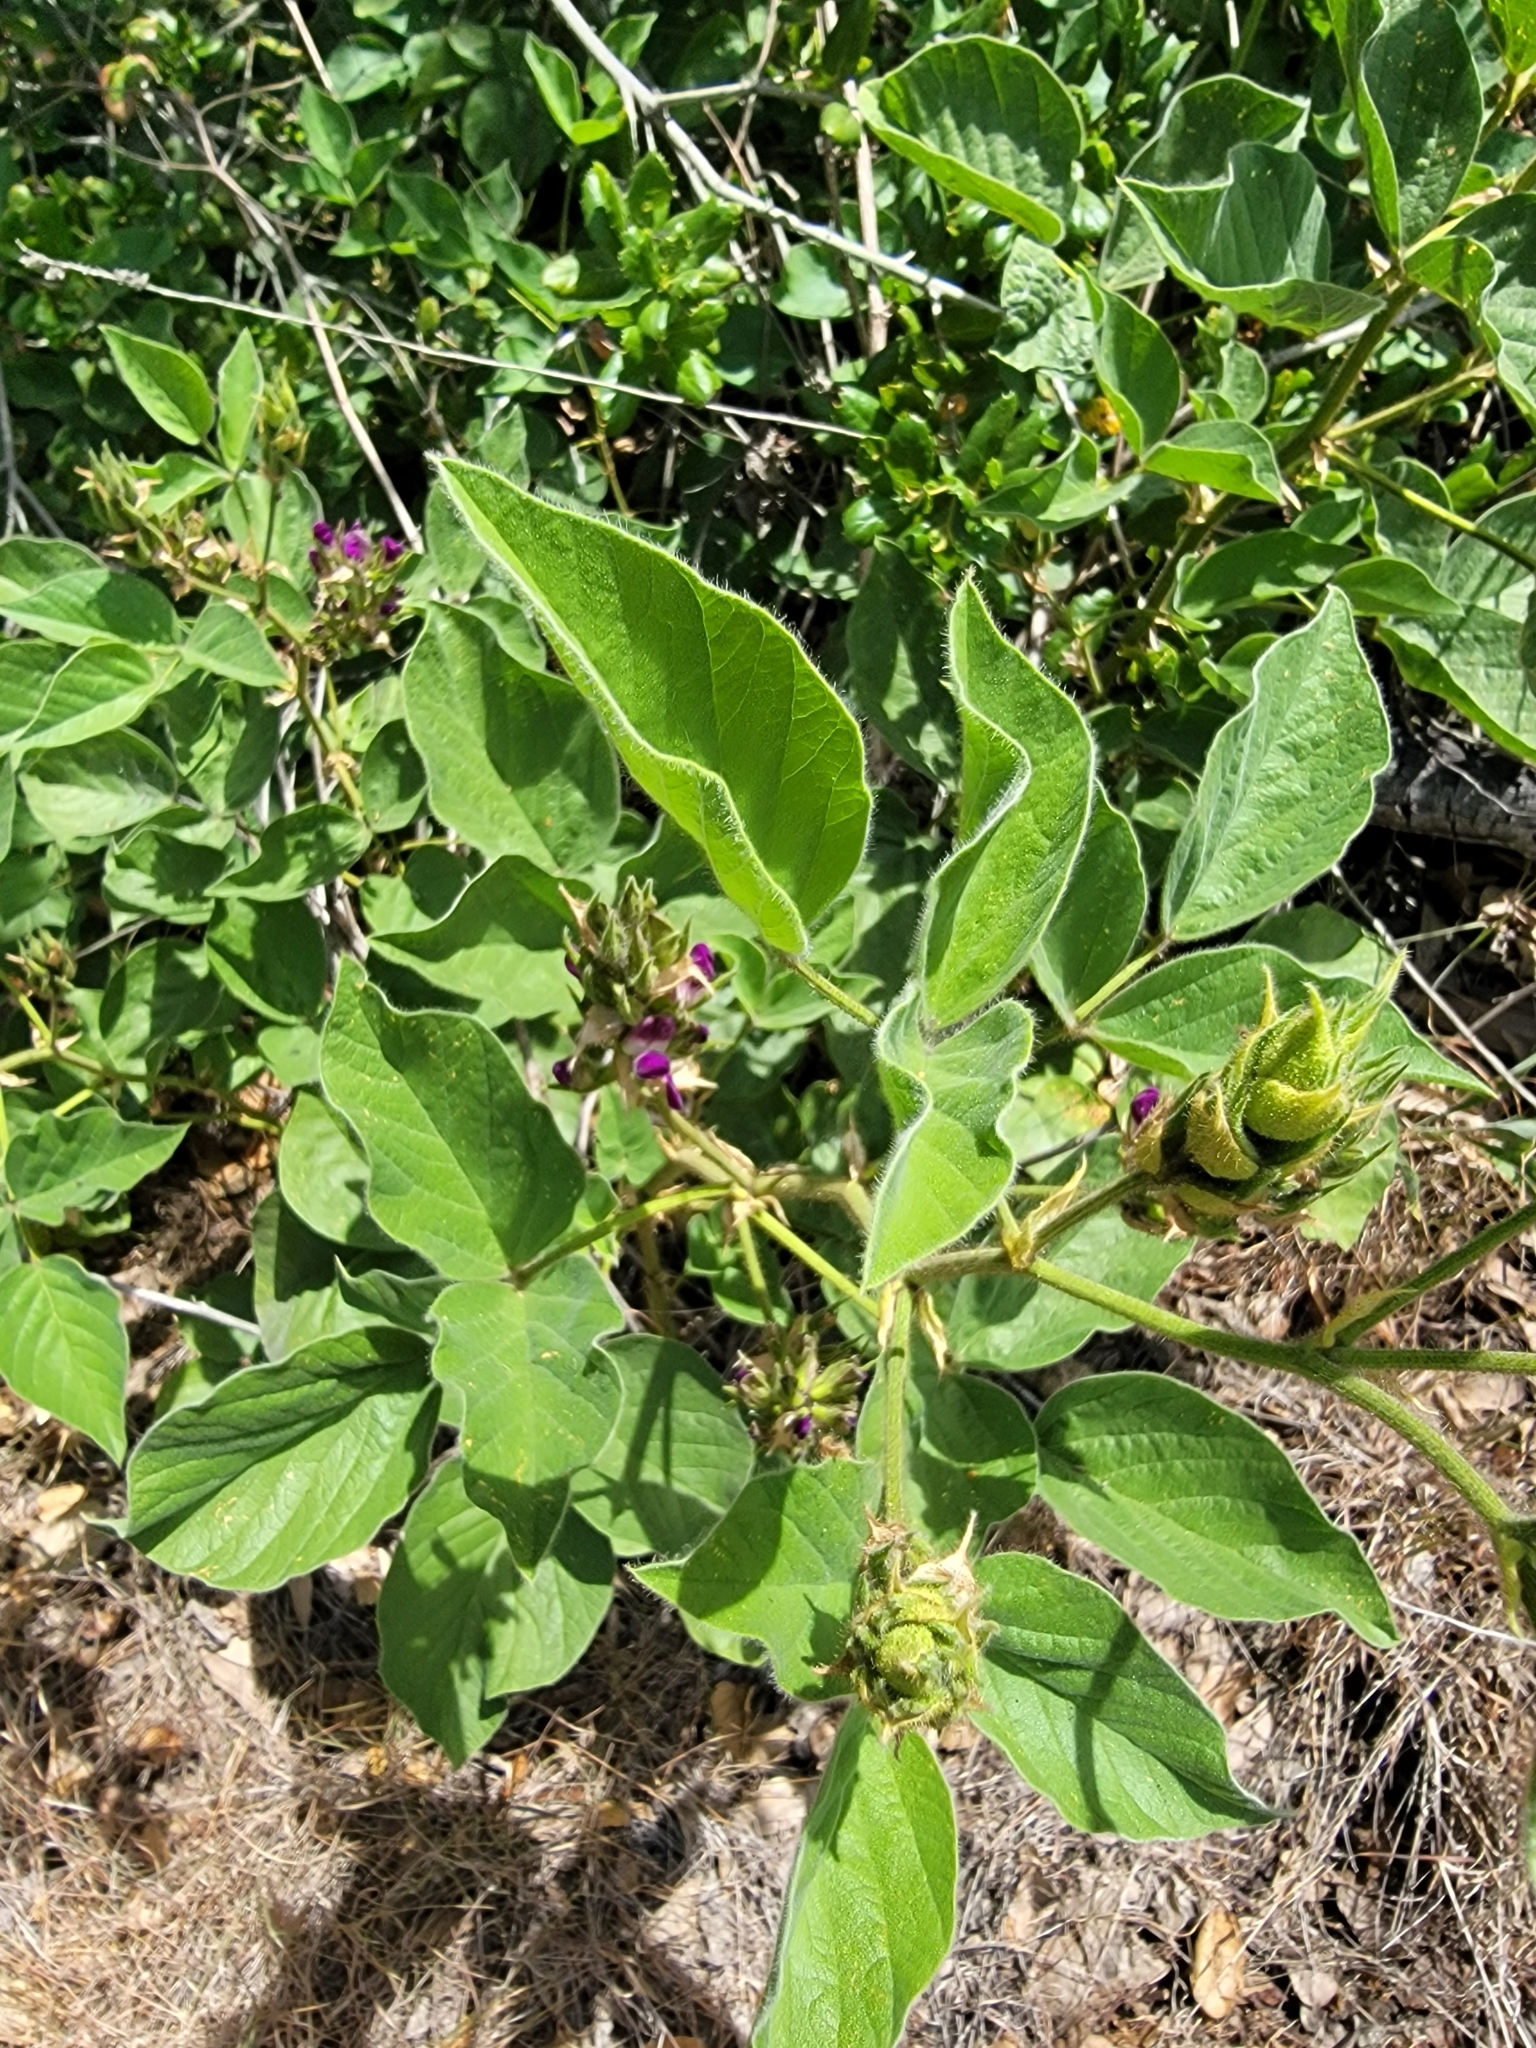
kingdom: Plantae
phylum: Tracheophyta
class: Magnoliopsida
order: Fabales
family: Fabaceae
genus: Hoita
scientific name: Hoita strobilina
